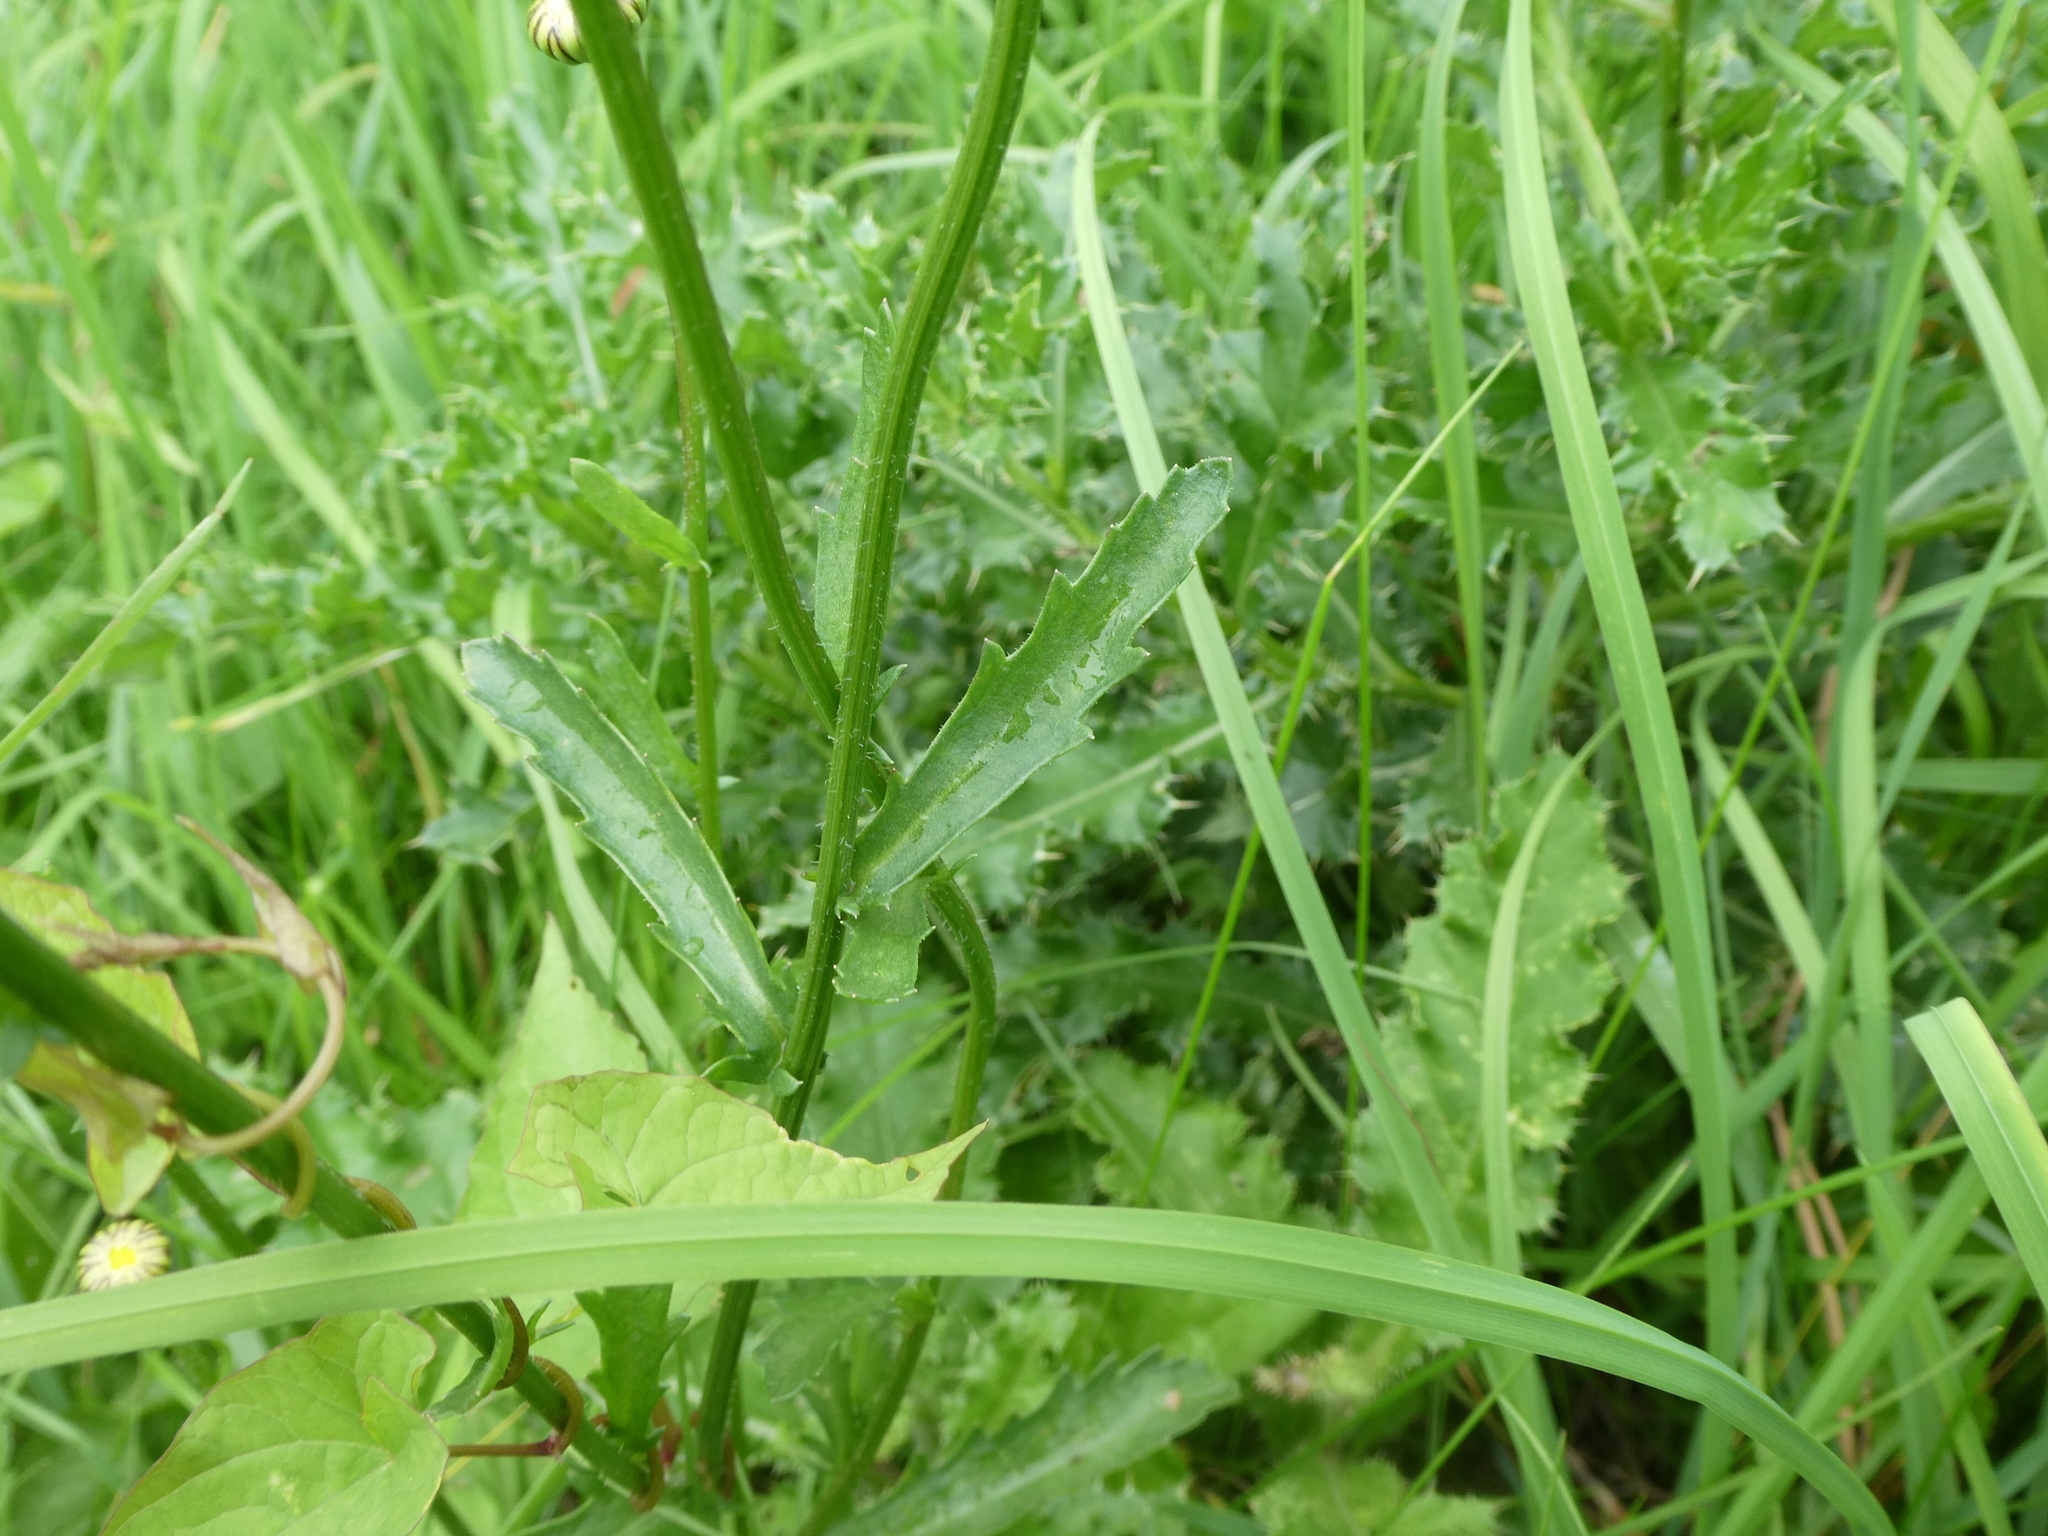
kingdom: Plantae
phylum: Tracheophyta
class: Magnoliopsida
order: Asterales
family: Asteraceae
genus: Leucanthemum
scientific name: Leucanthemum vulgare
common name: Oxeye daisy
